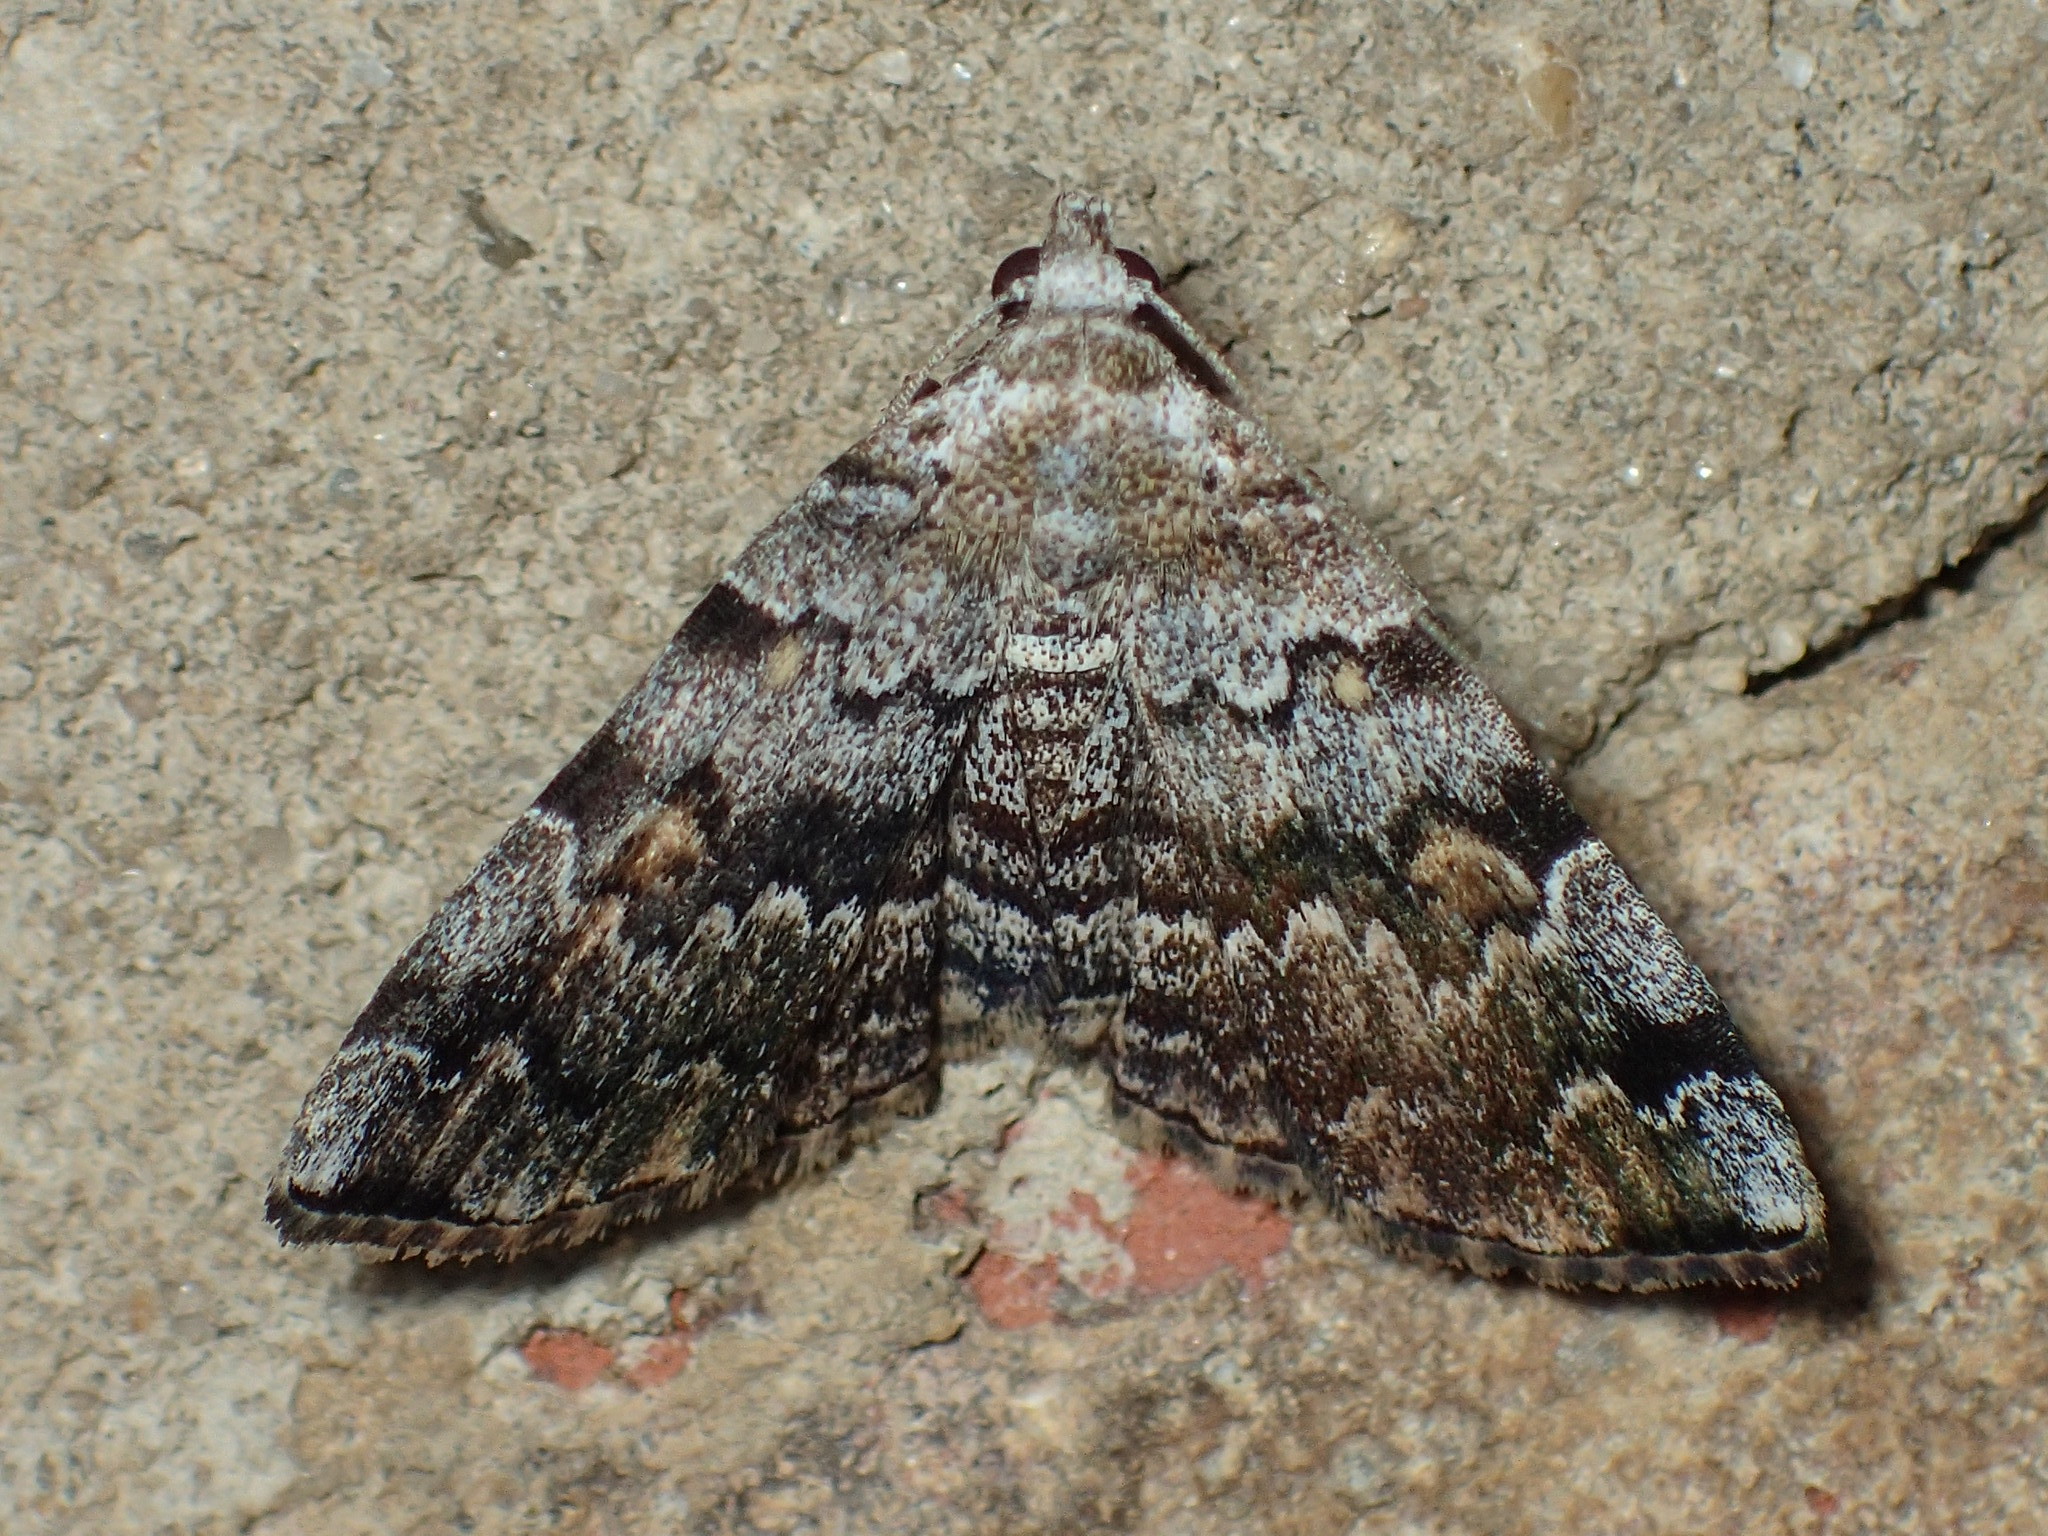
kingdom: Animalia
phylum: Arthropoda
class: Insecta
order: Lepidoptera
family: Erebidae
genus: Idia
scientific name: Idia americalis
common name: American idia moth
